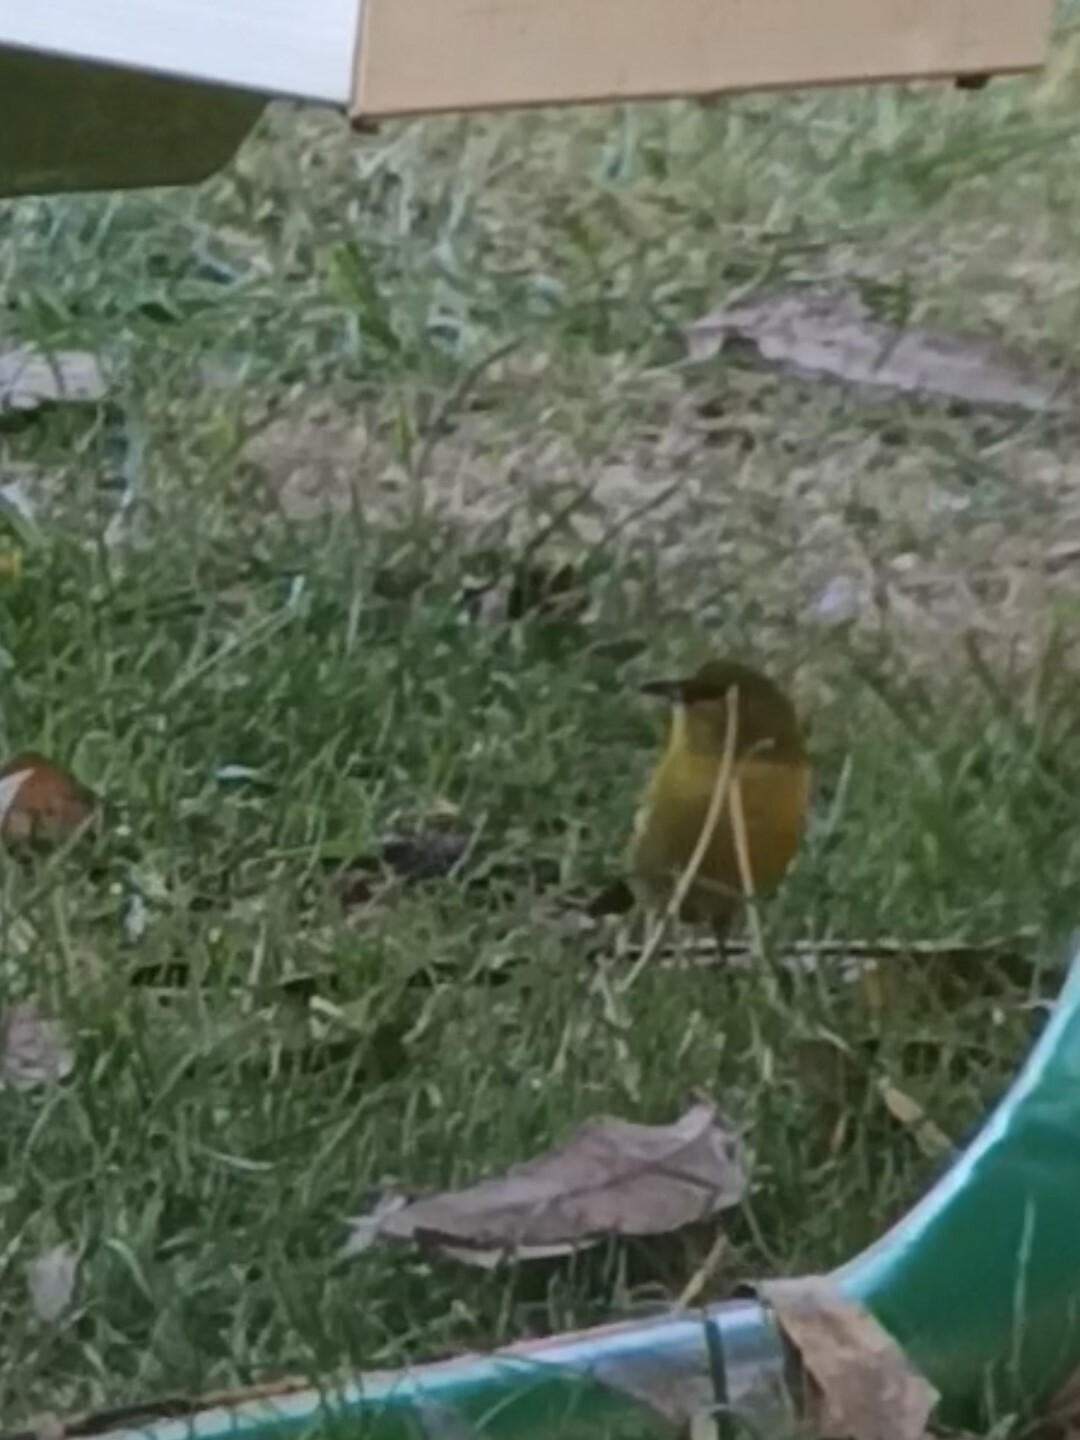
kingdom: Animalia
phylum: Chordata
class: Aves
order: Passeriformes
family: Fringillidae
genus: Chlorodrepanis
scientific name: Chlorodrepanis virens
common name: Hawaii amakihi
